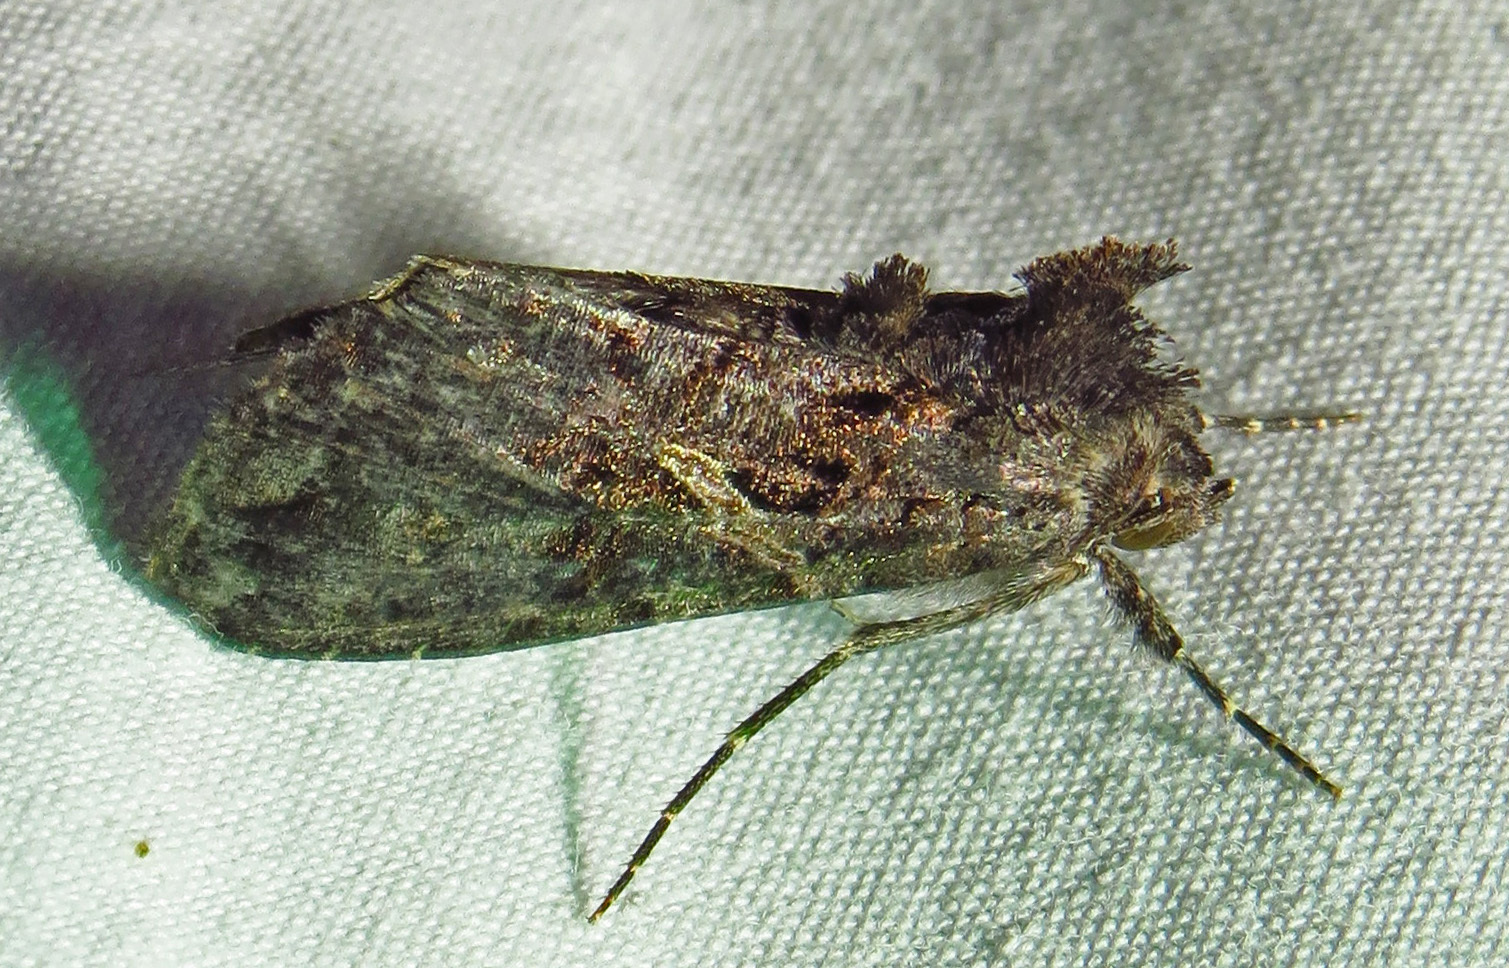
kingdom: Animalia
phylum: Arthropoda
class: Insecta
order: Lepidoptera
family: Noctuidae
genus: Ctenoplusia
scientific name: Ctenoplusia oxygramma
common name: Sharp-stigma looper moth
